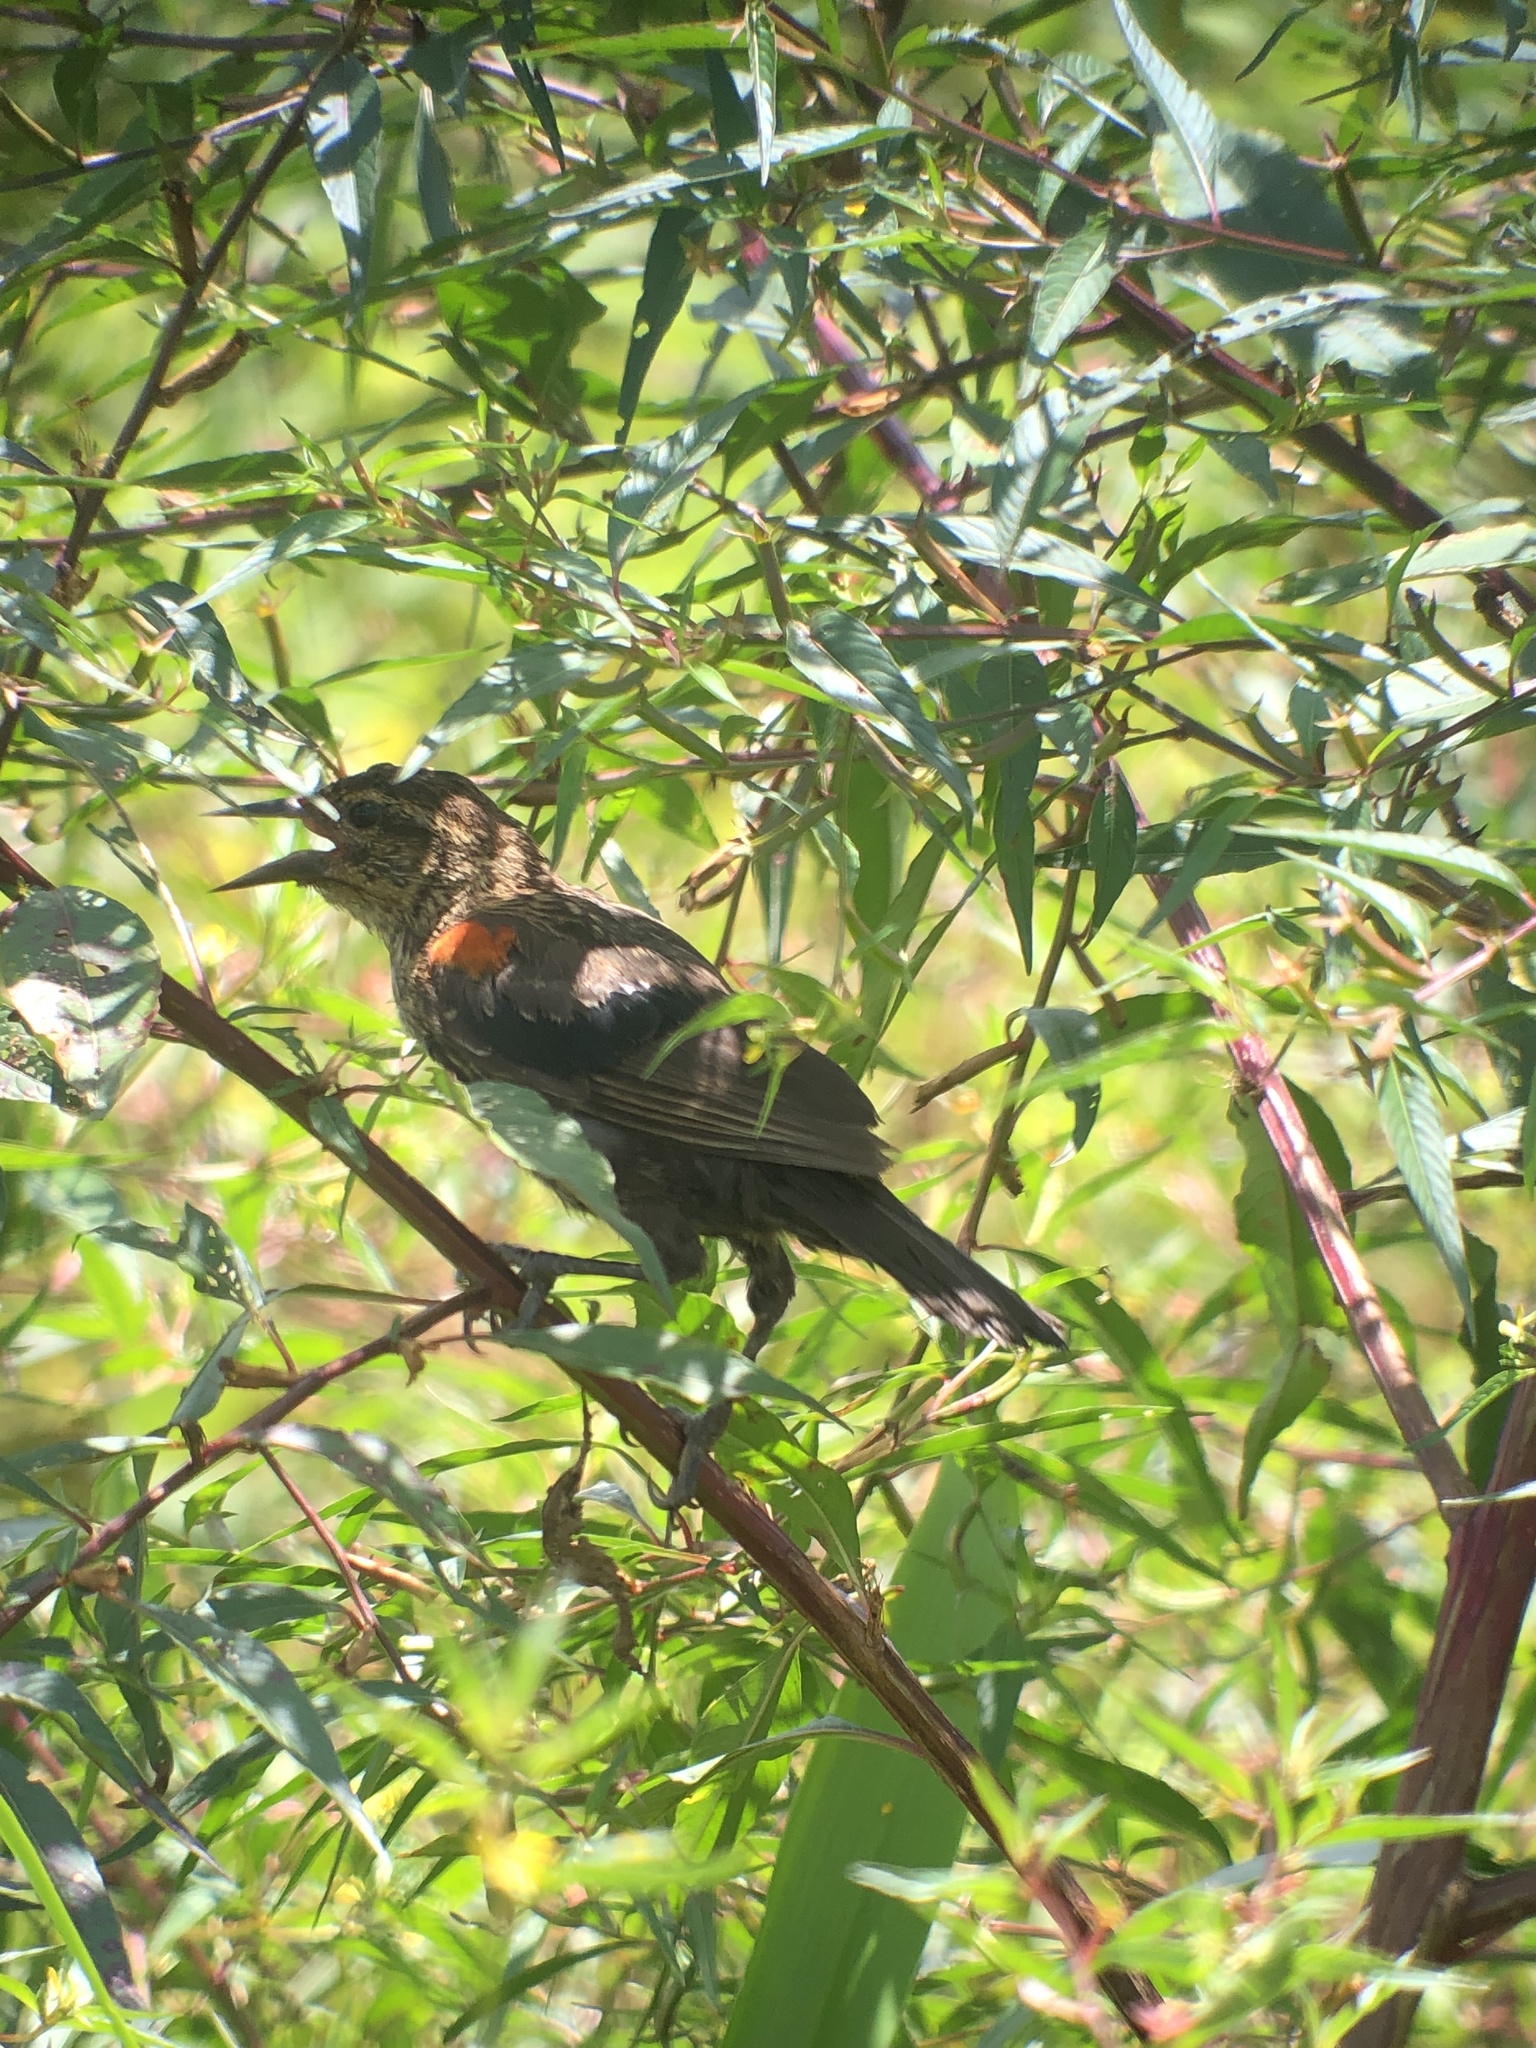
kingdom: Animalia
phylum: Chordata
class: Aves
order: Passeriformes
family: Icteridae
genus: Agelaius
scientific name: Agelaius phoeniceus
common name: Red-winged blackbird
